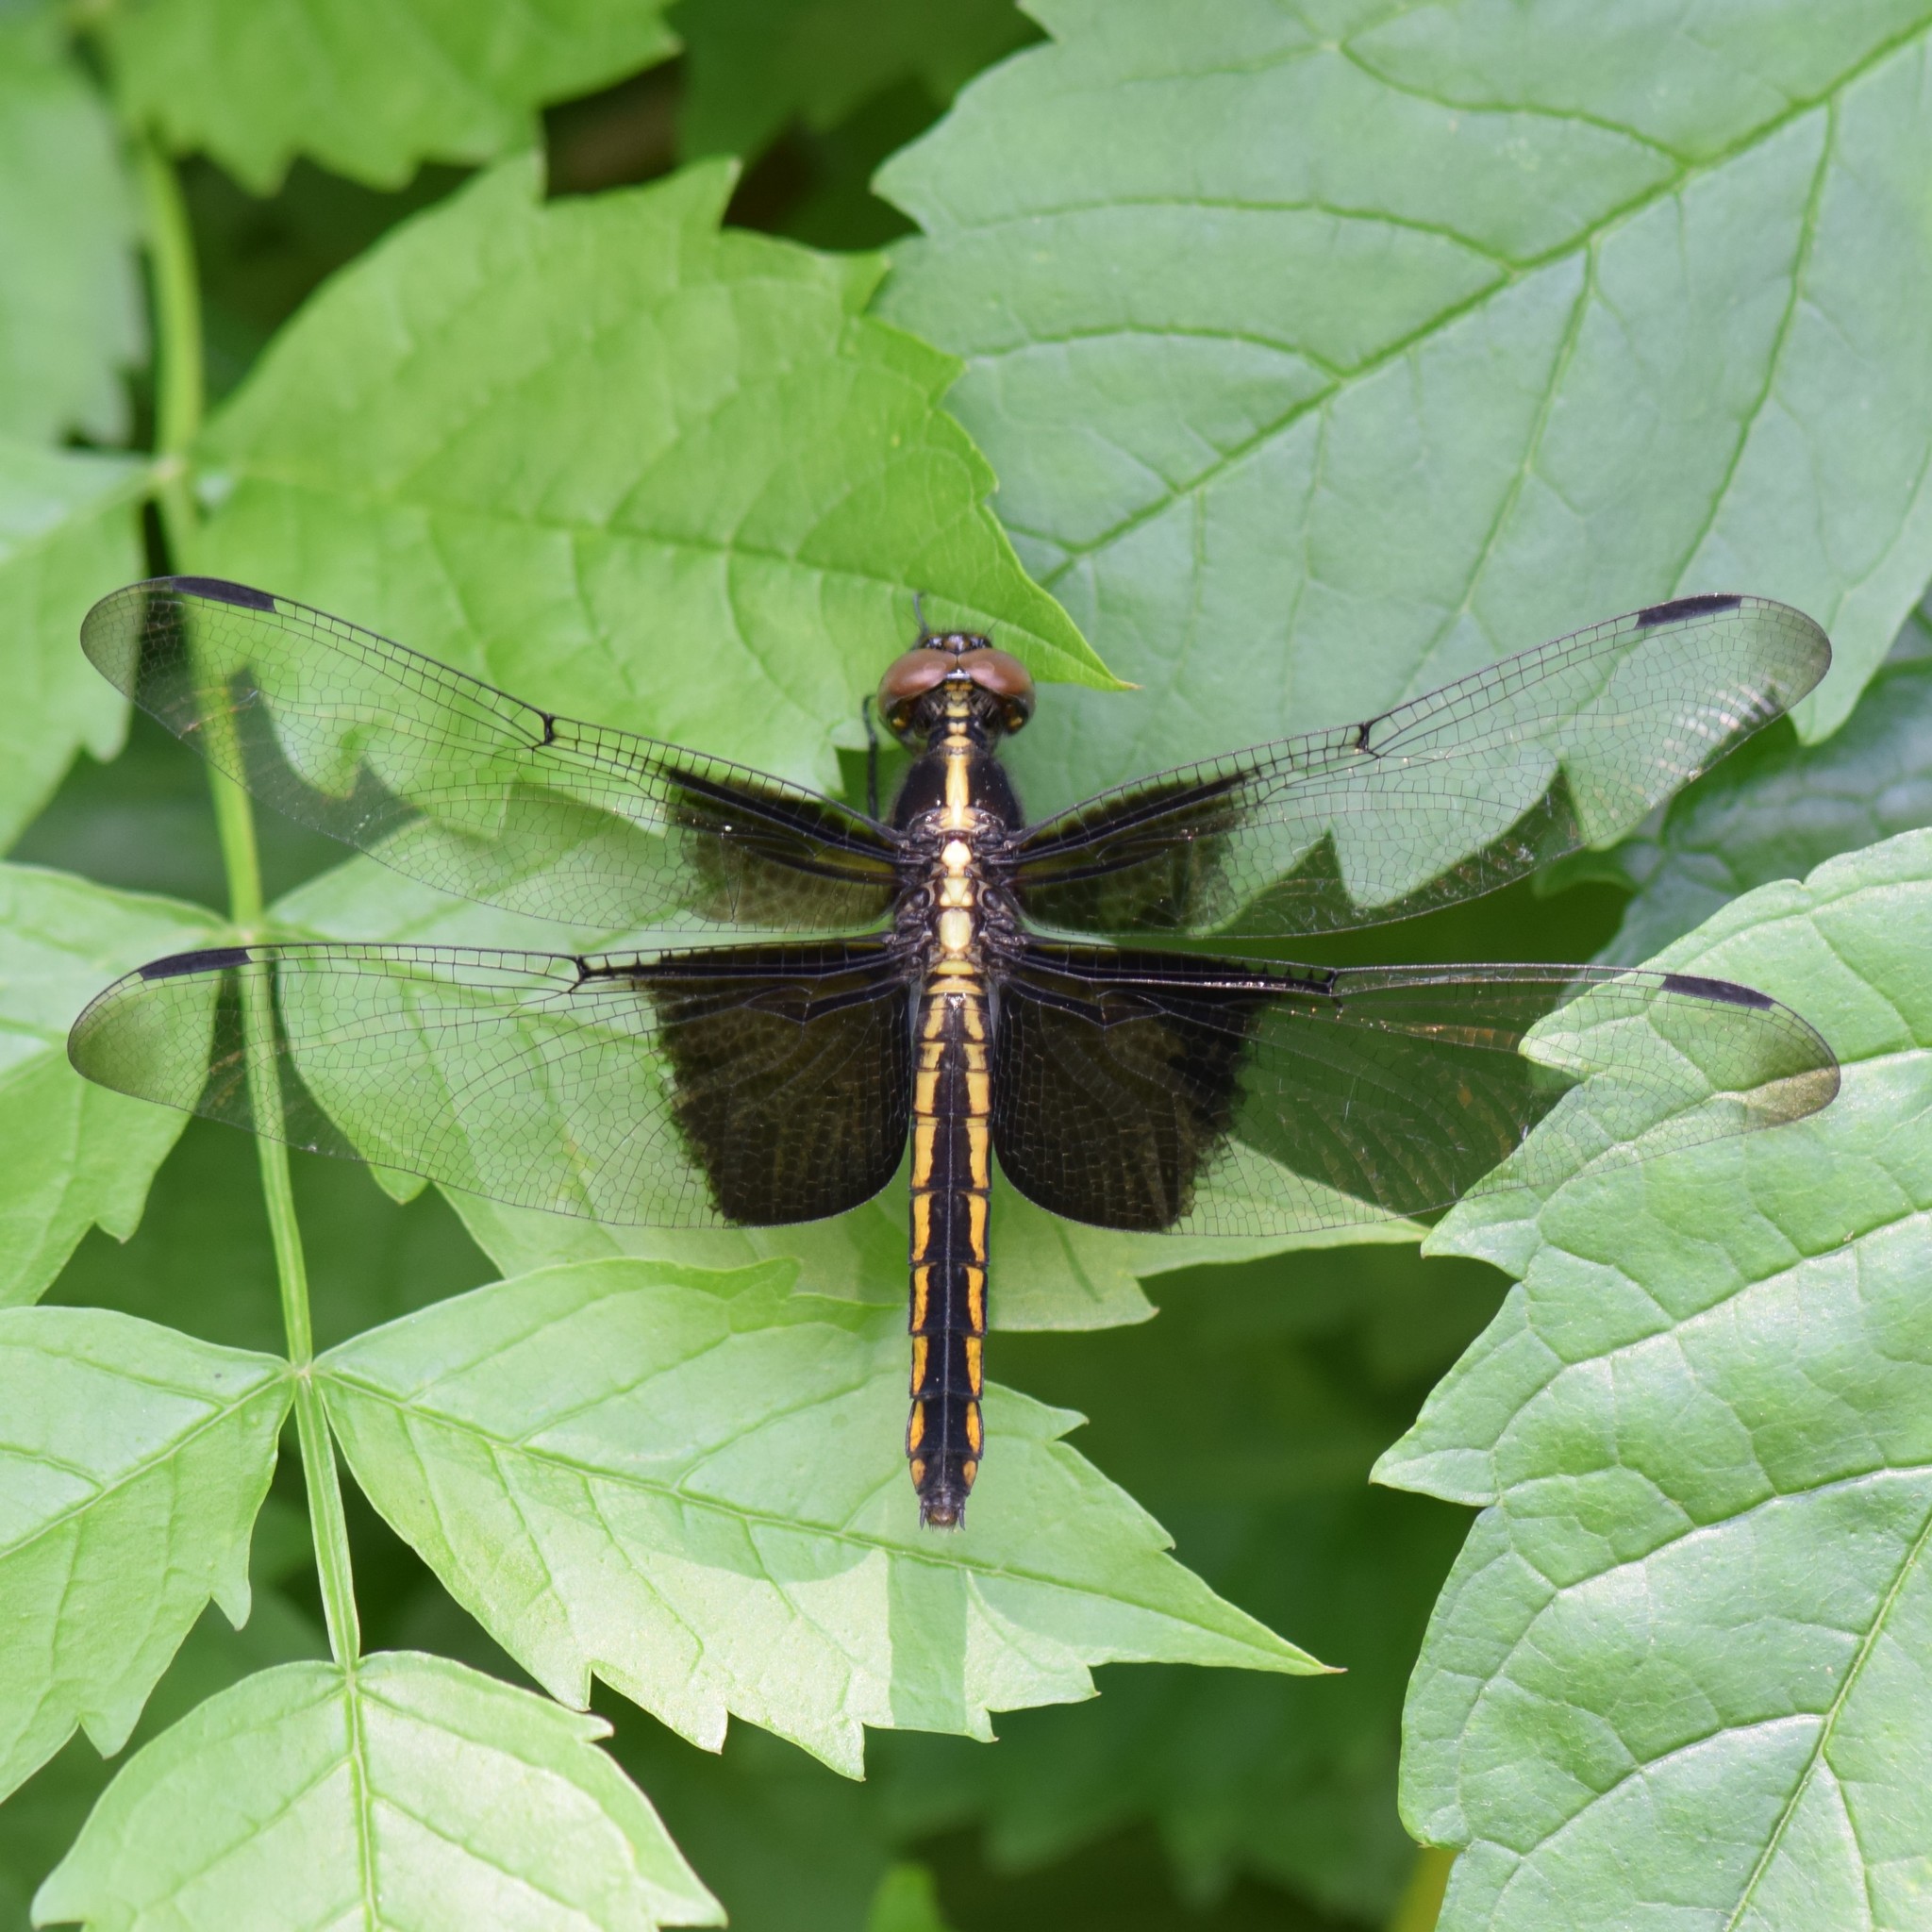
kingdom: Animalia
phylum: Arthropoda
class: Insecta
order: Odonata
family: Libellulidae
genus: Libellula
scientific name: Libellula luctuosa
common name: Widow skimmer
